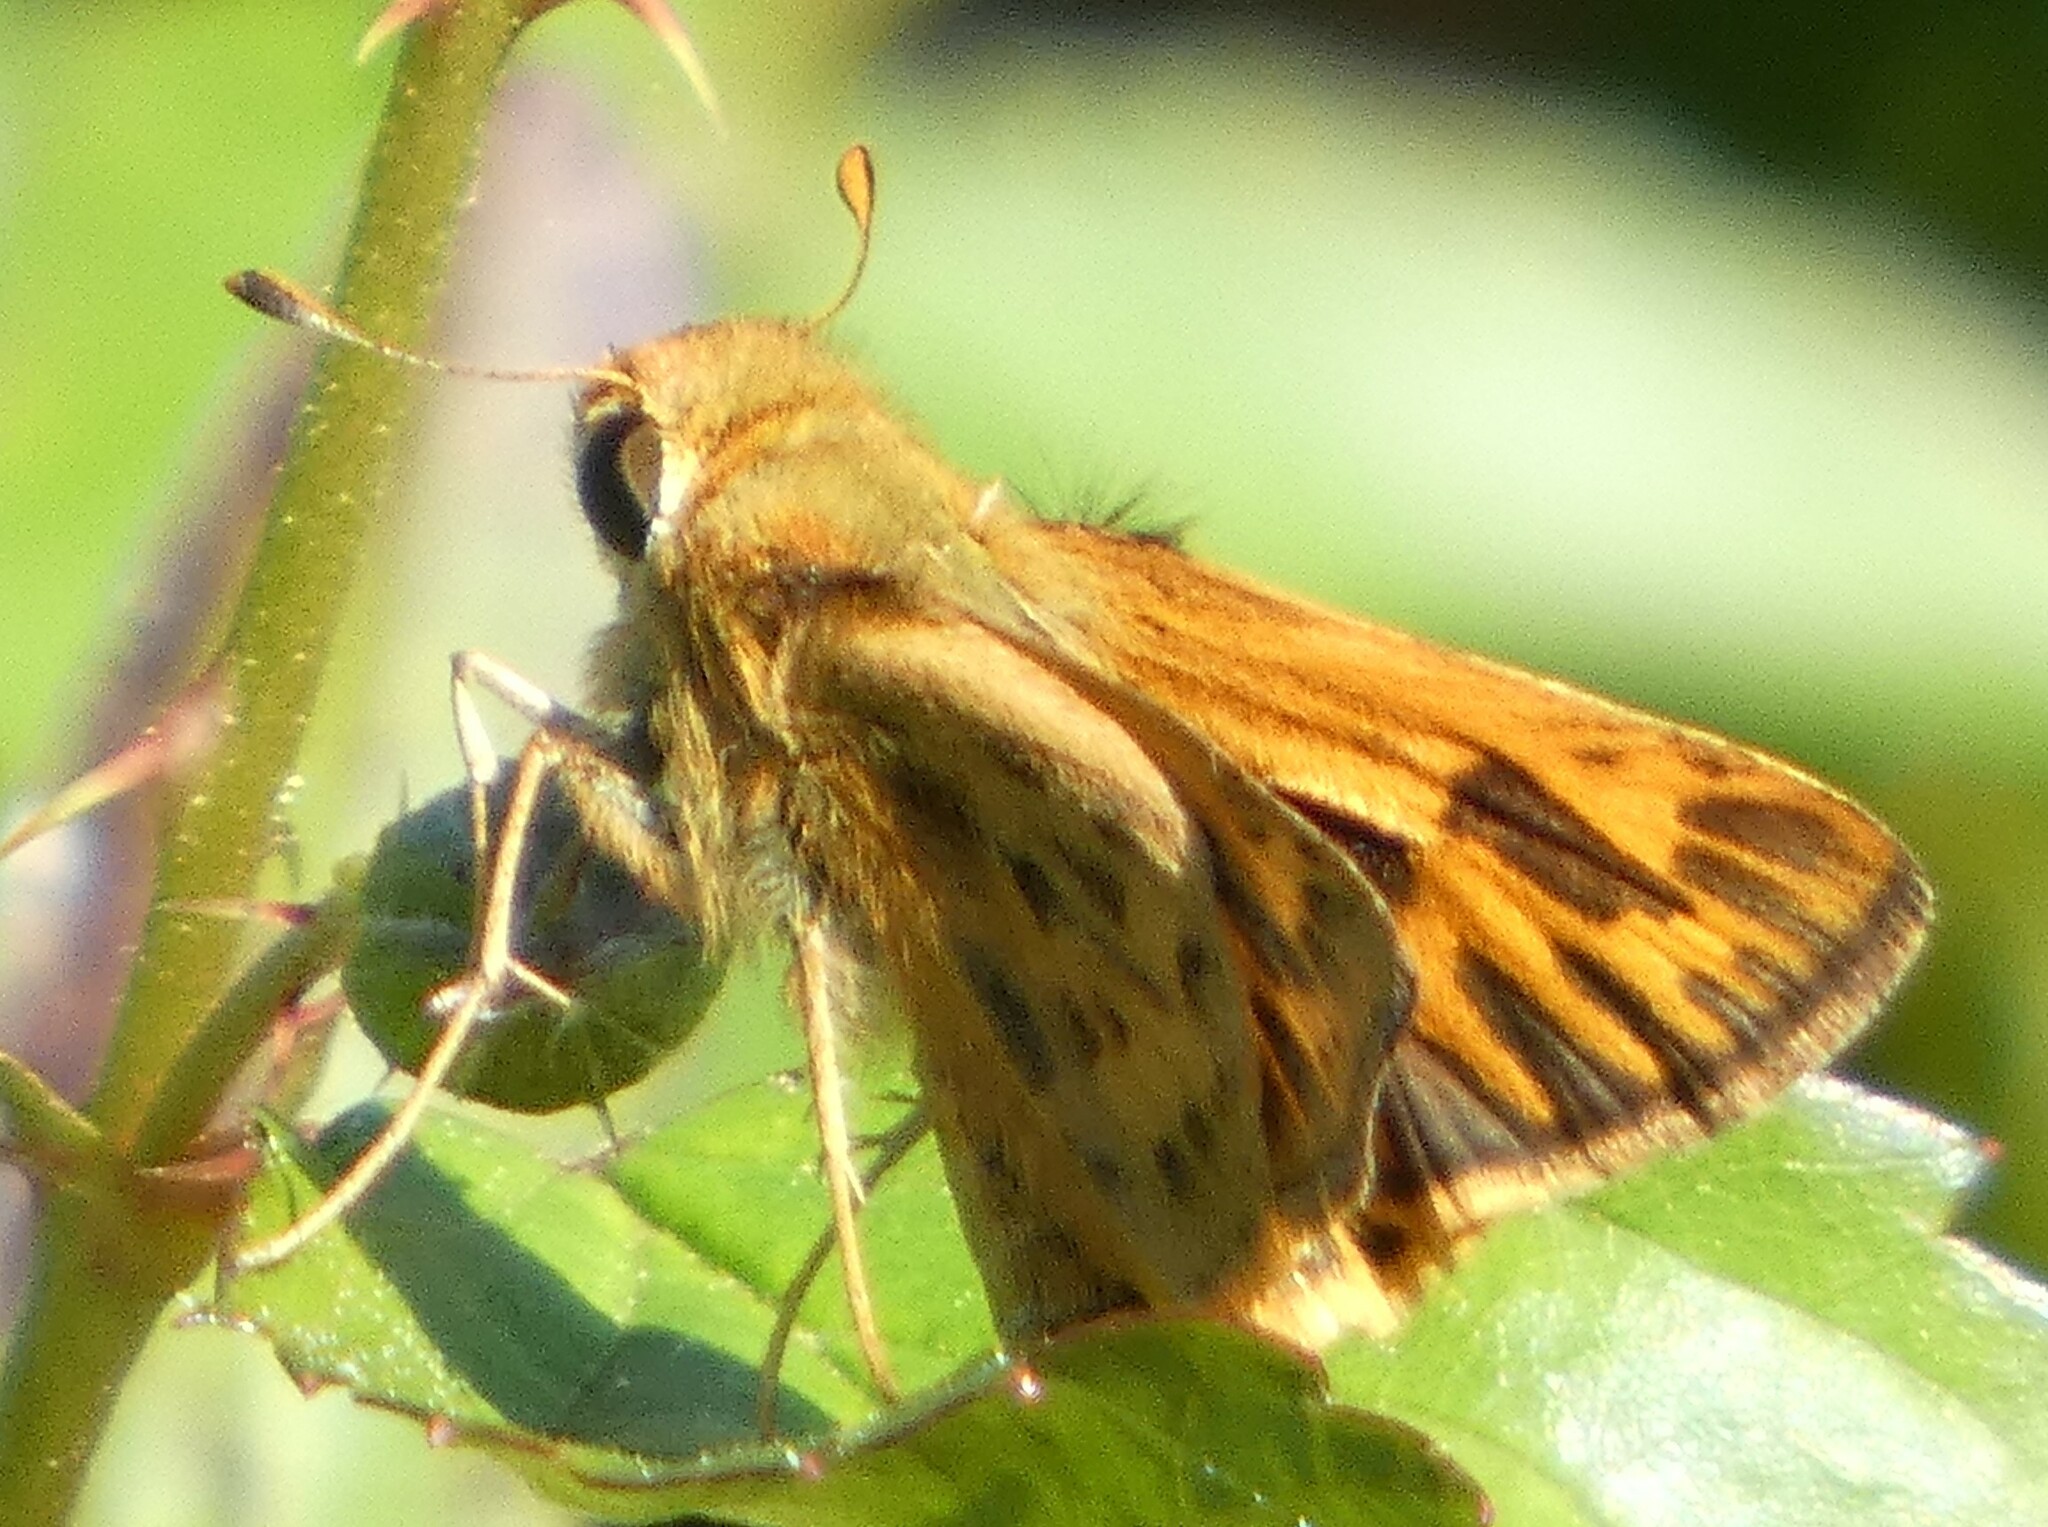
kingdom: Animalia
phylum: Arthropoda
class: Insecta
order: Lepidoptera
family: Hesperiidae
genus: Hylephila
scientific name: Hylephila phyleus
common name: Fiery skipper
